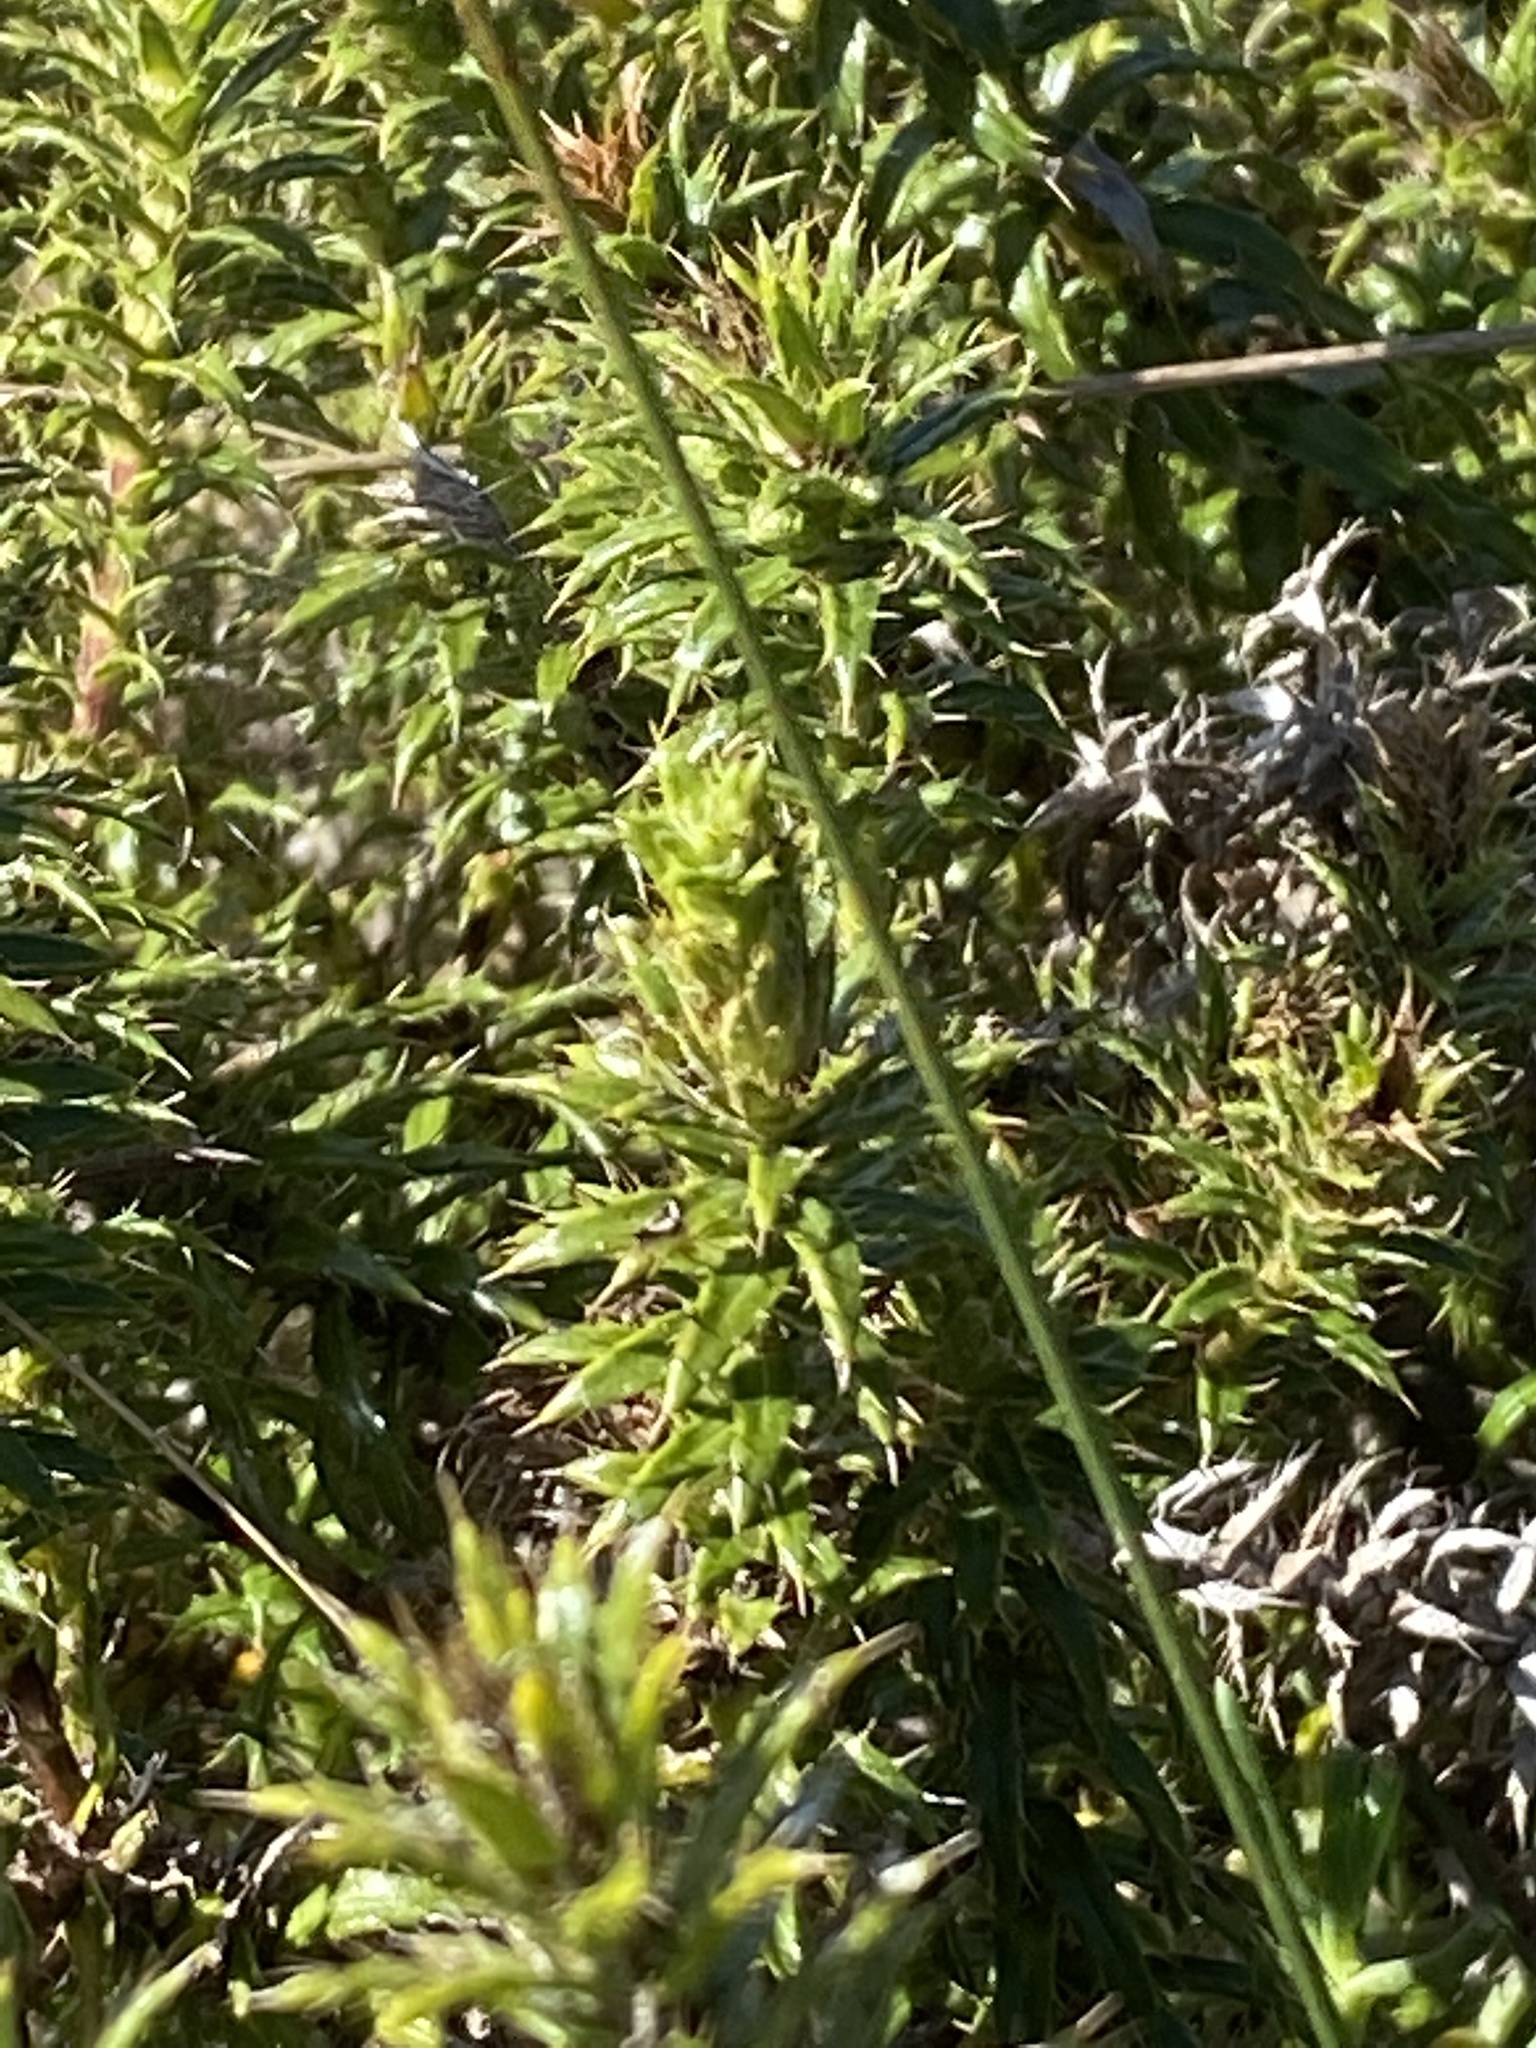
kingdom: Plantae
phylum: Tracheophyta
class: Magnoliopsida
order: Asterales
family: Asteraceae
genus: Cullumia
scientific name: Cullumia carlinoides
